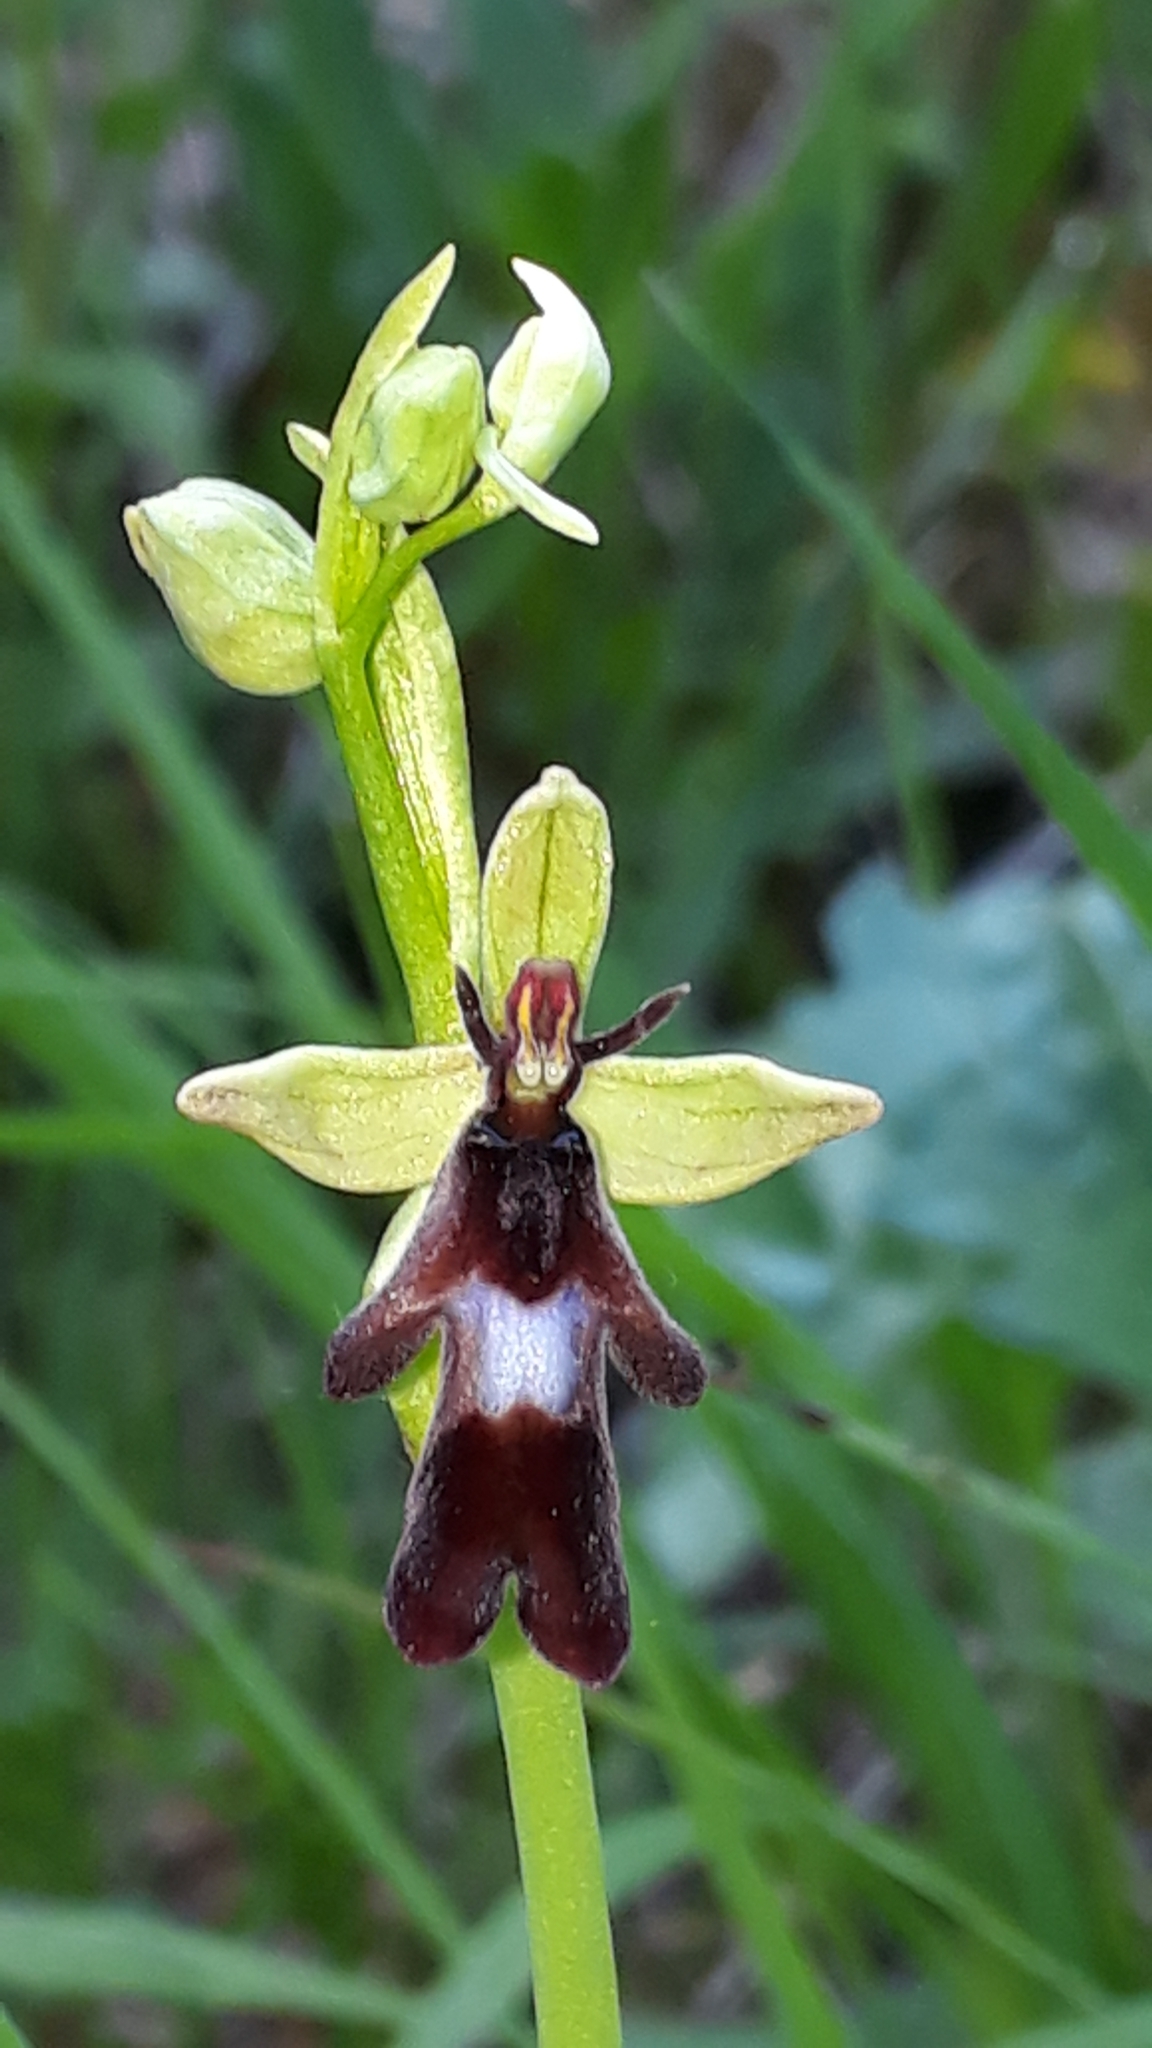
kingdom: Plantae
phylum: Tracheophyta
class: Liliopsida
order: Asparagales
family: Orchidaceae
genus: Ophrys
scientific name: Ophrys insectifera
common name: Fly orchid
